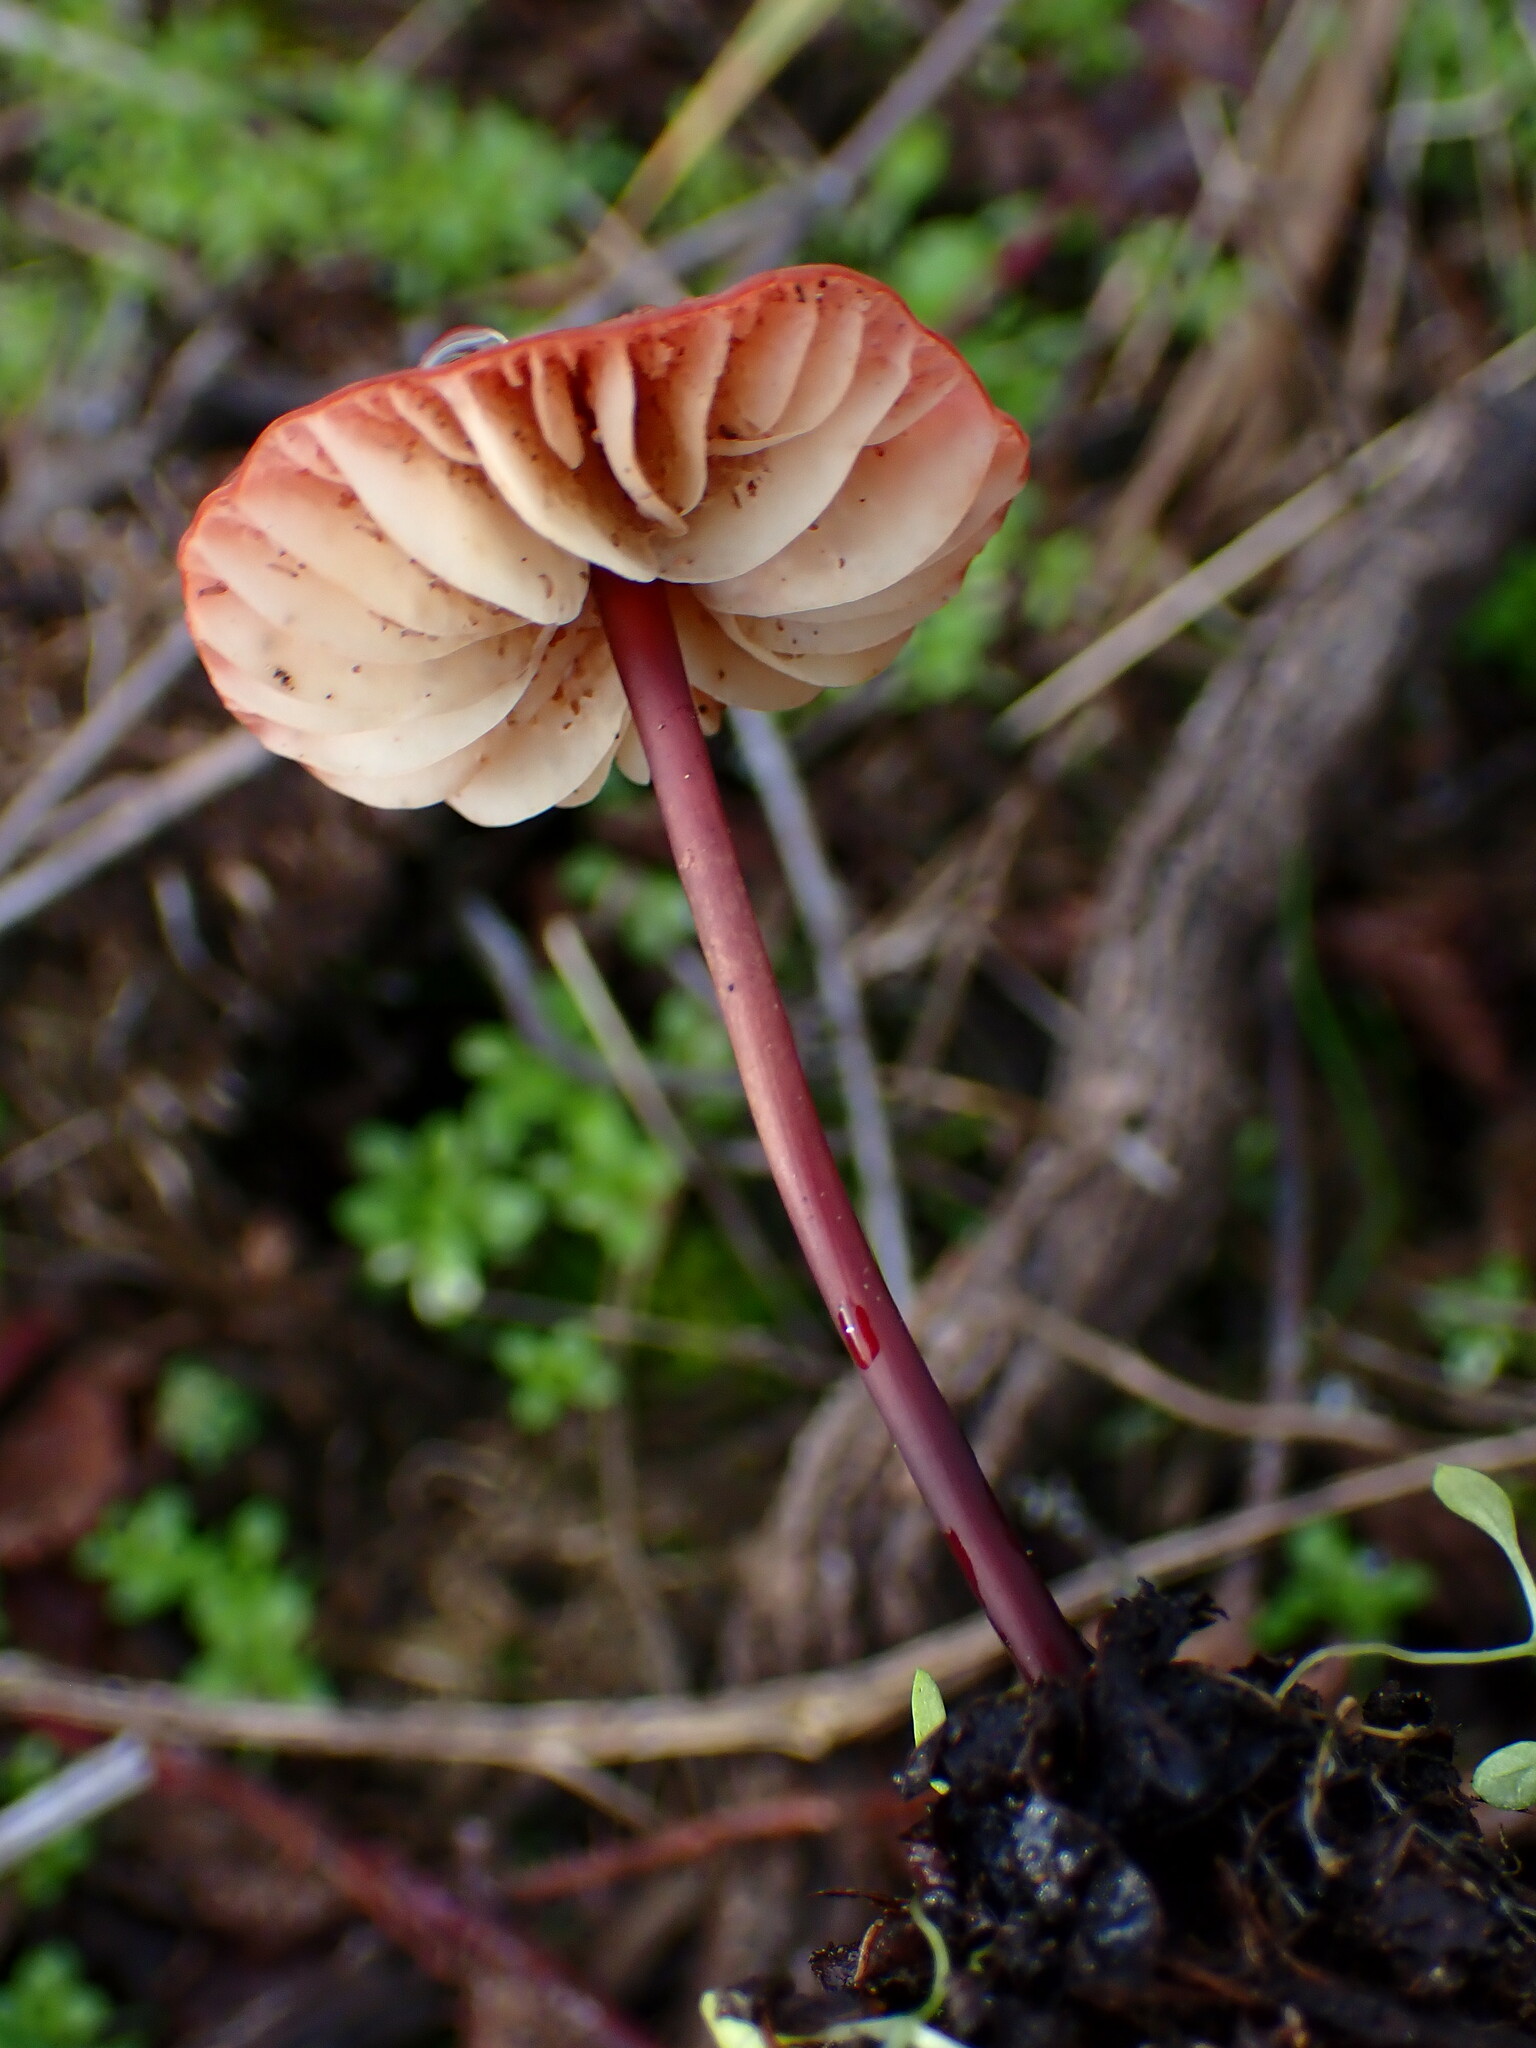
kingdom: Fungi
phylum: Basidiomycota
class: Agaricomycetes
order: Agaricales
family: Marasmiaceae
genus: Marasmius
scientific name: Marasmius plicatulus
